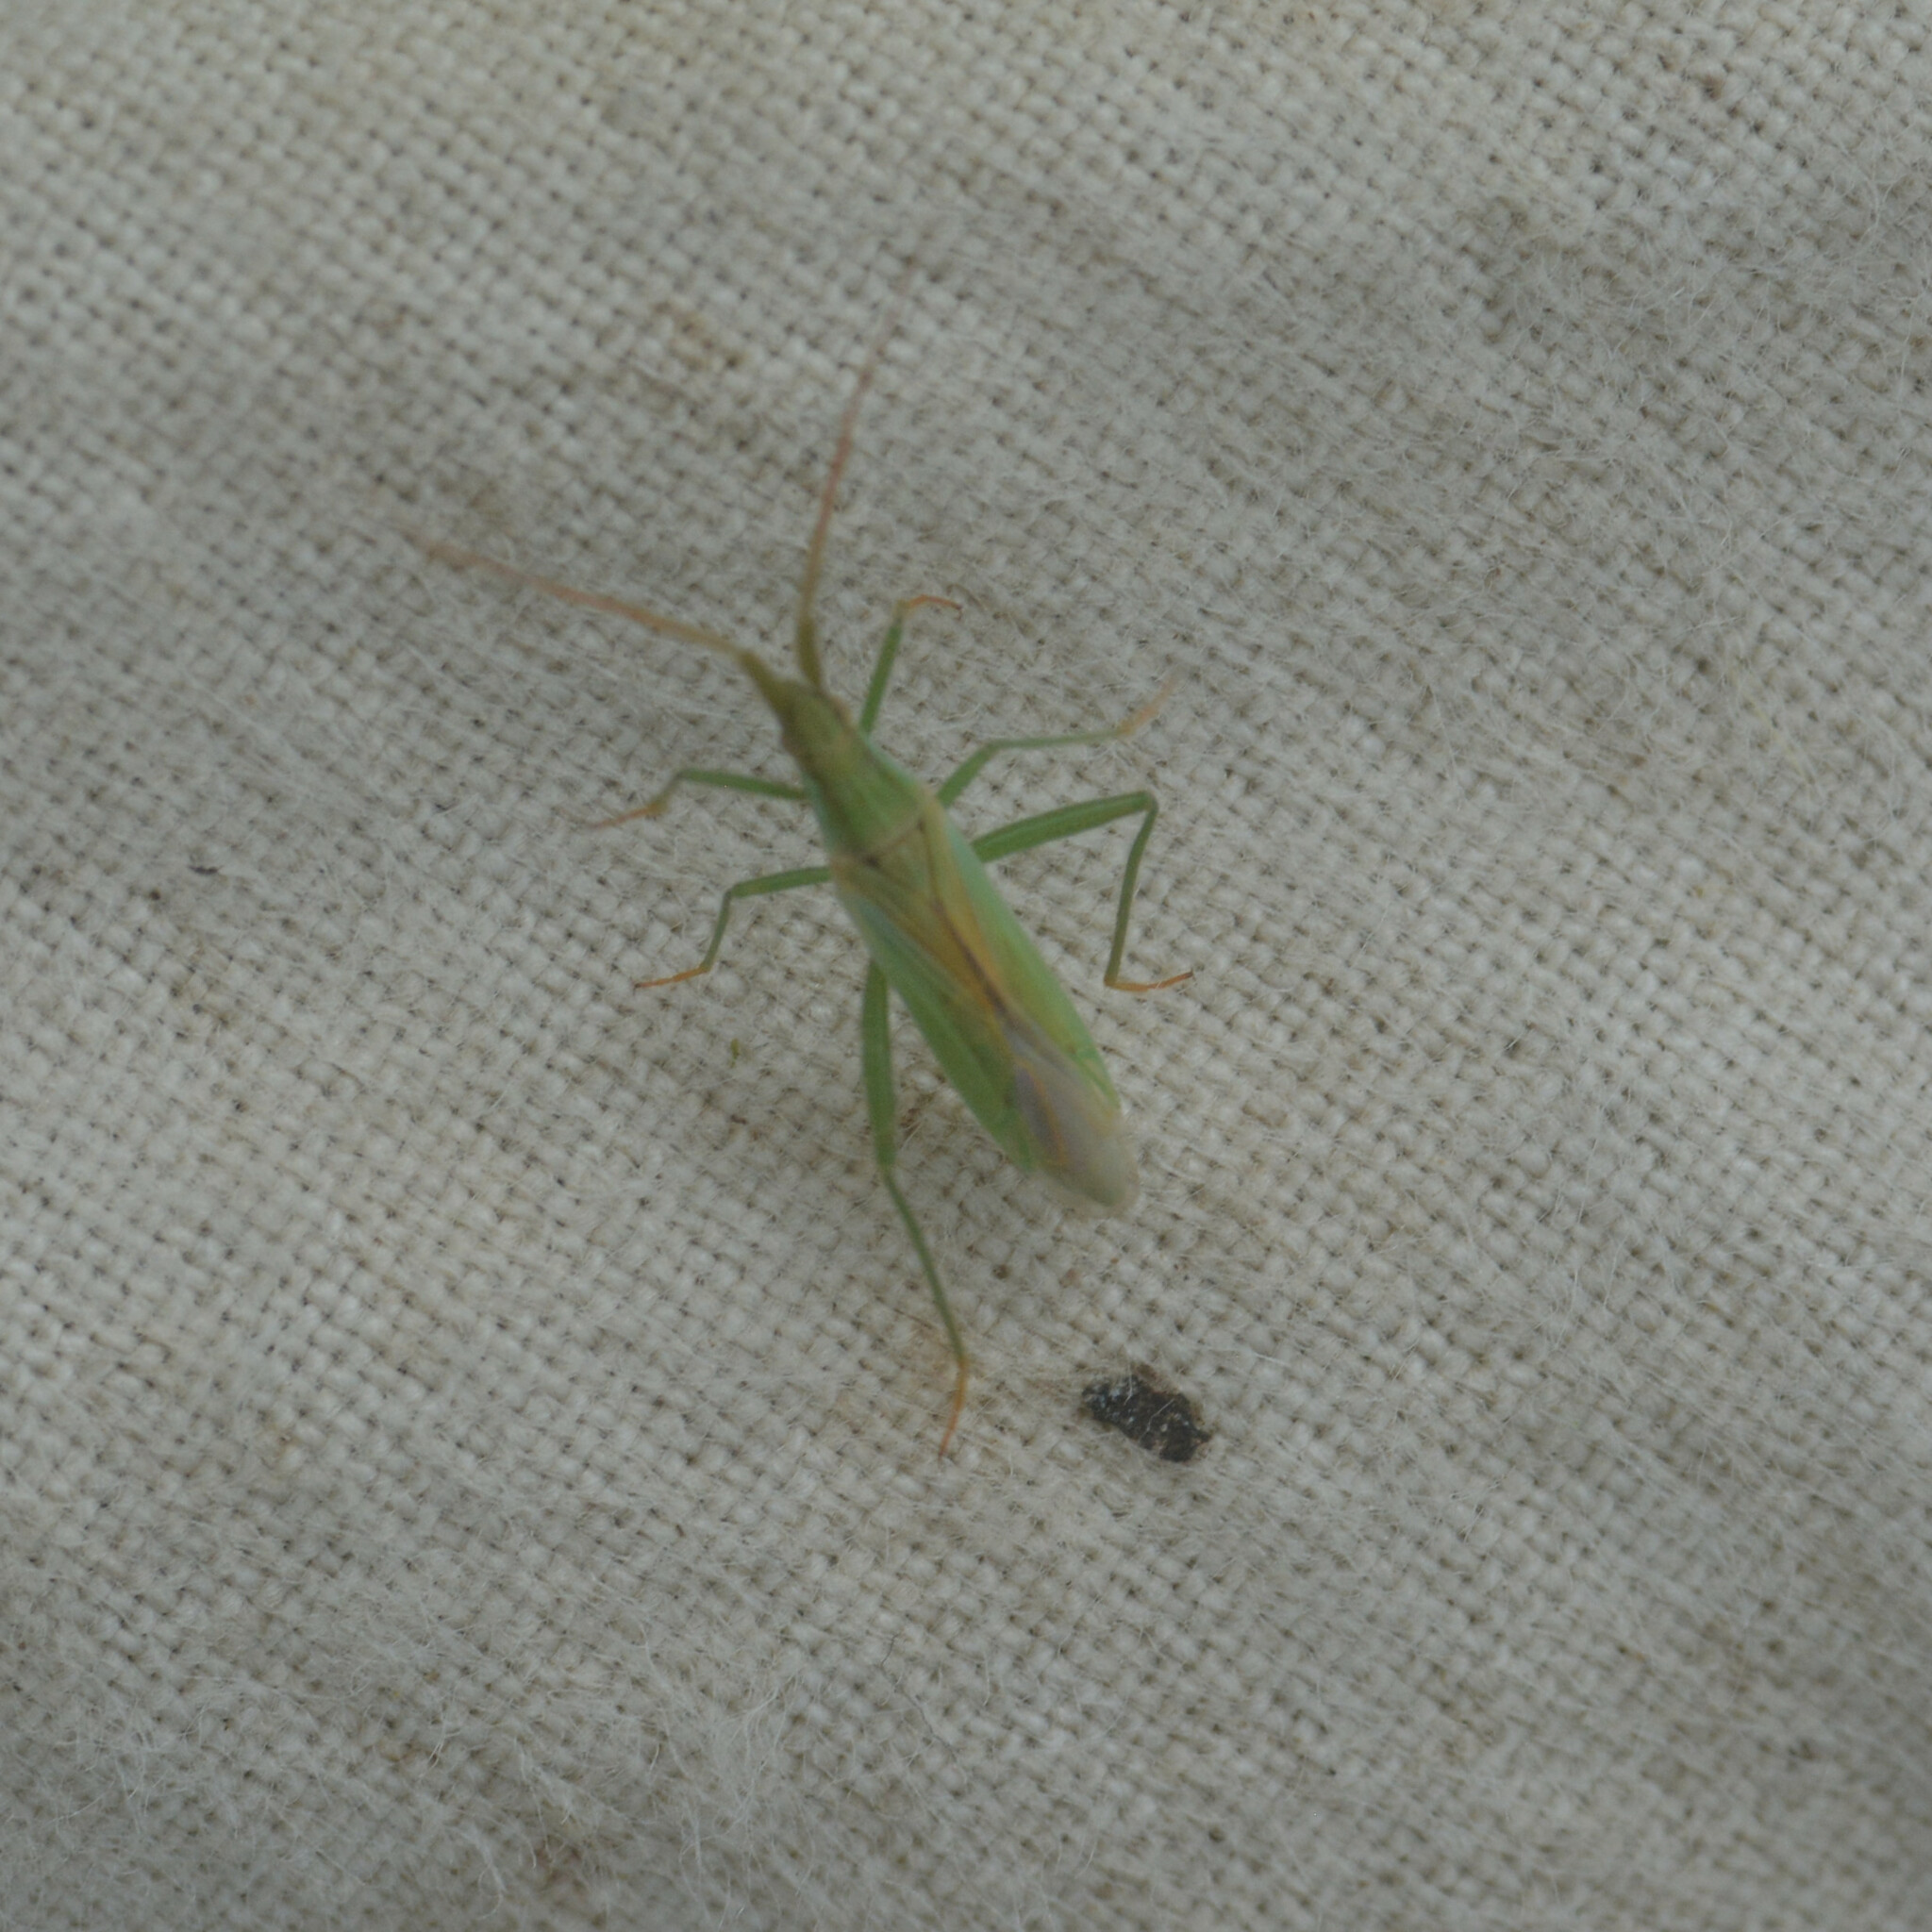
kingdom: Animalia
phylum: Arthropoda
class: Insecta
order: Hemiptera
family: Miridae
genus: Stenodema
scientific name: Stenodema laevigata
